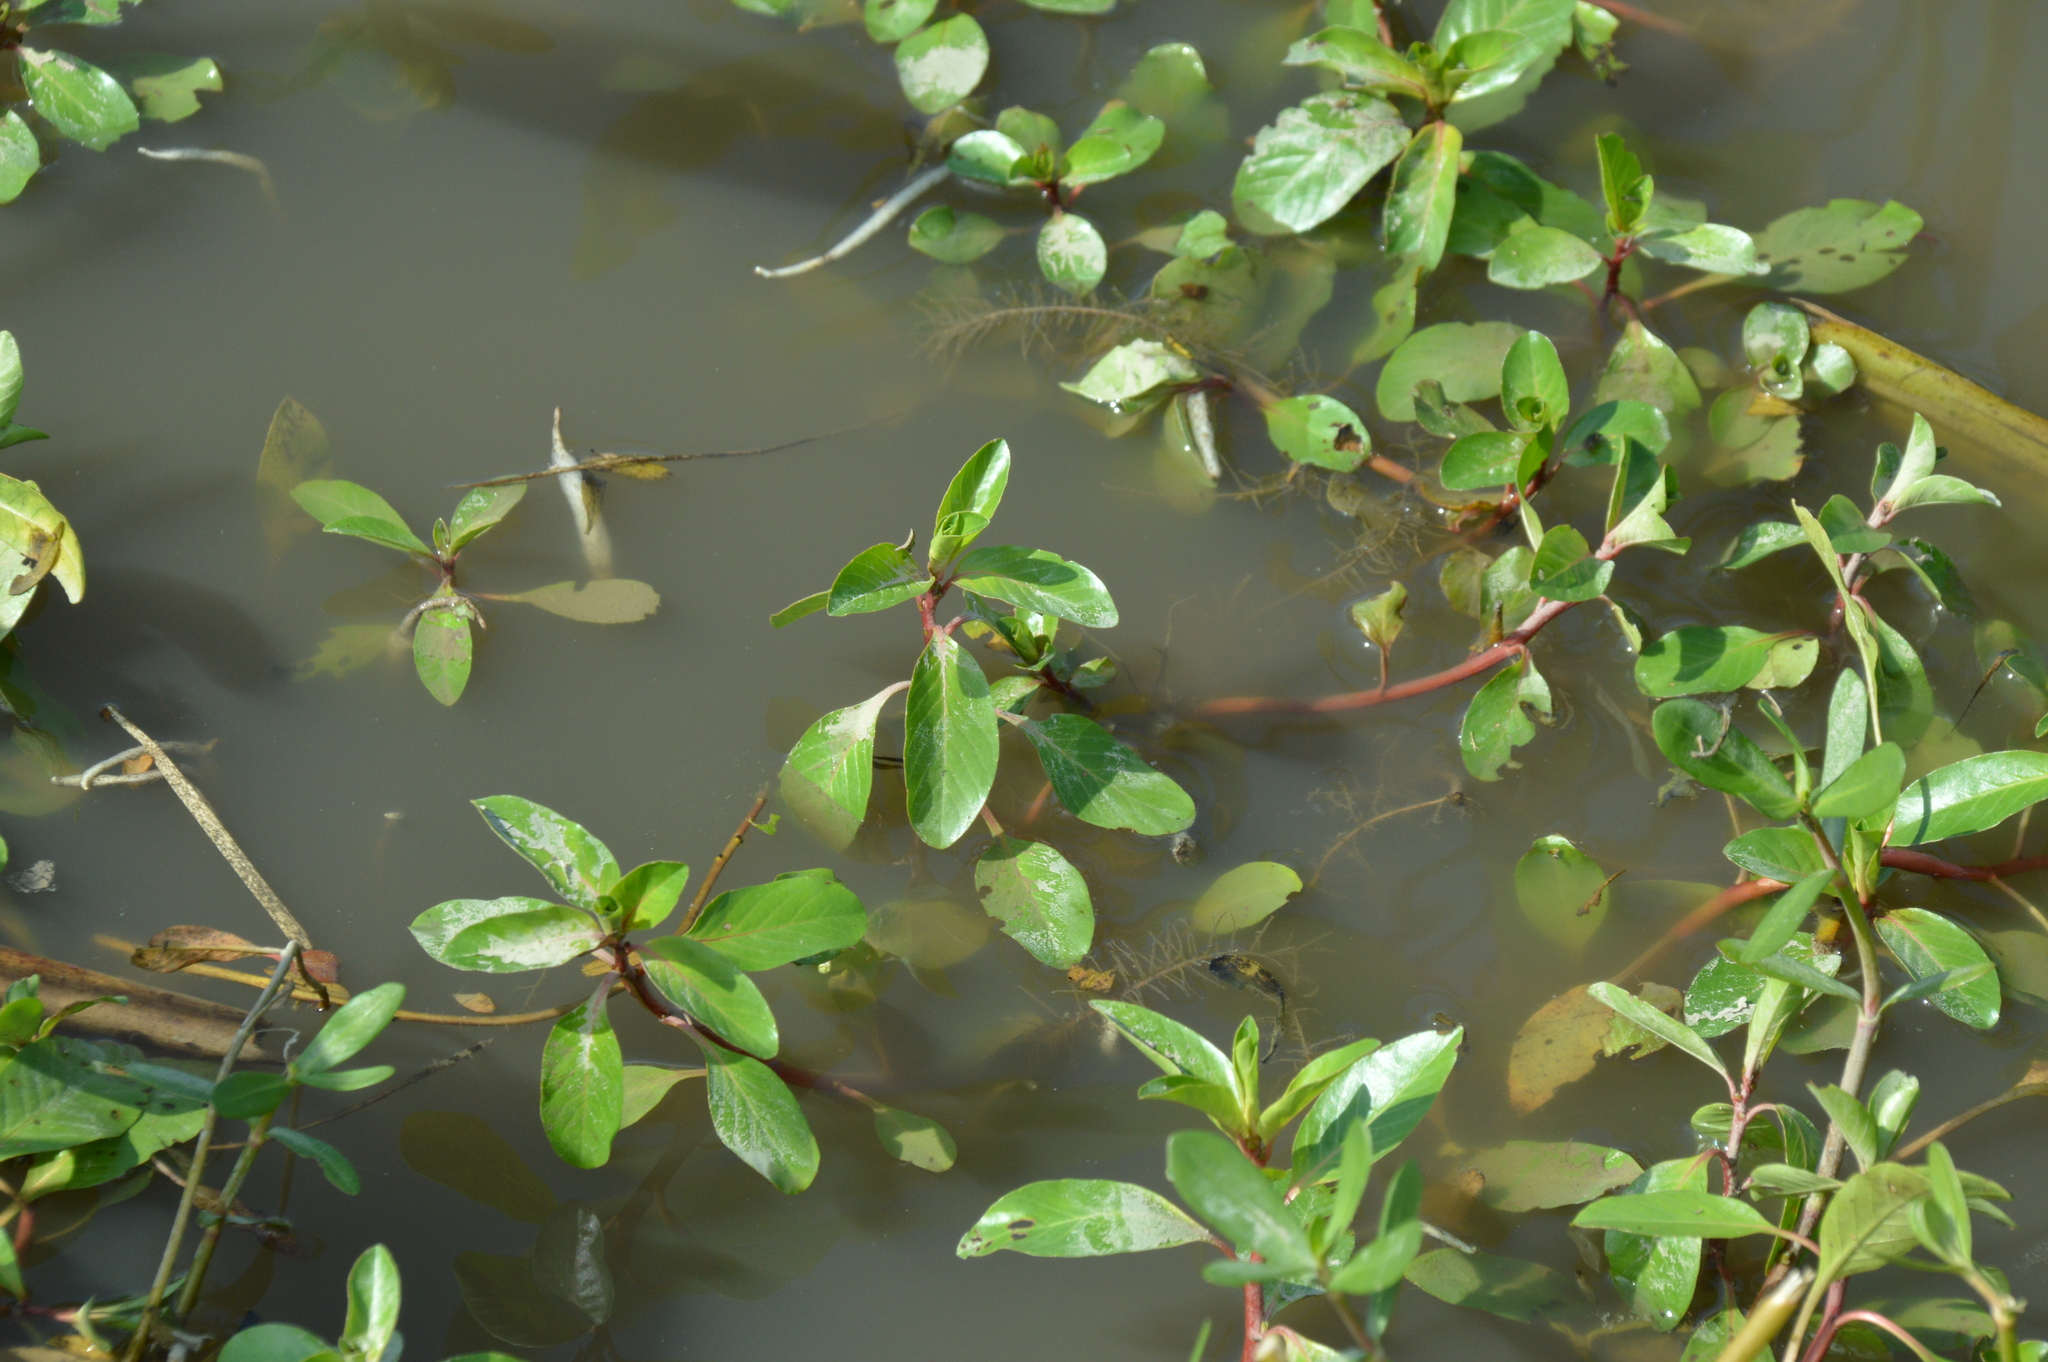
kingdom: Plantae
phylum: Tracheophyta
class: Magnoliopsida
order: Myrtales
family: Onagraceae
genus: Ludwigia
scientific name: Ludwigia peploides
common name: Floating primrose-willow
